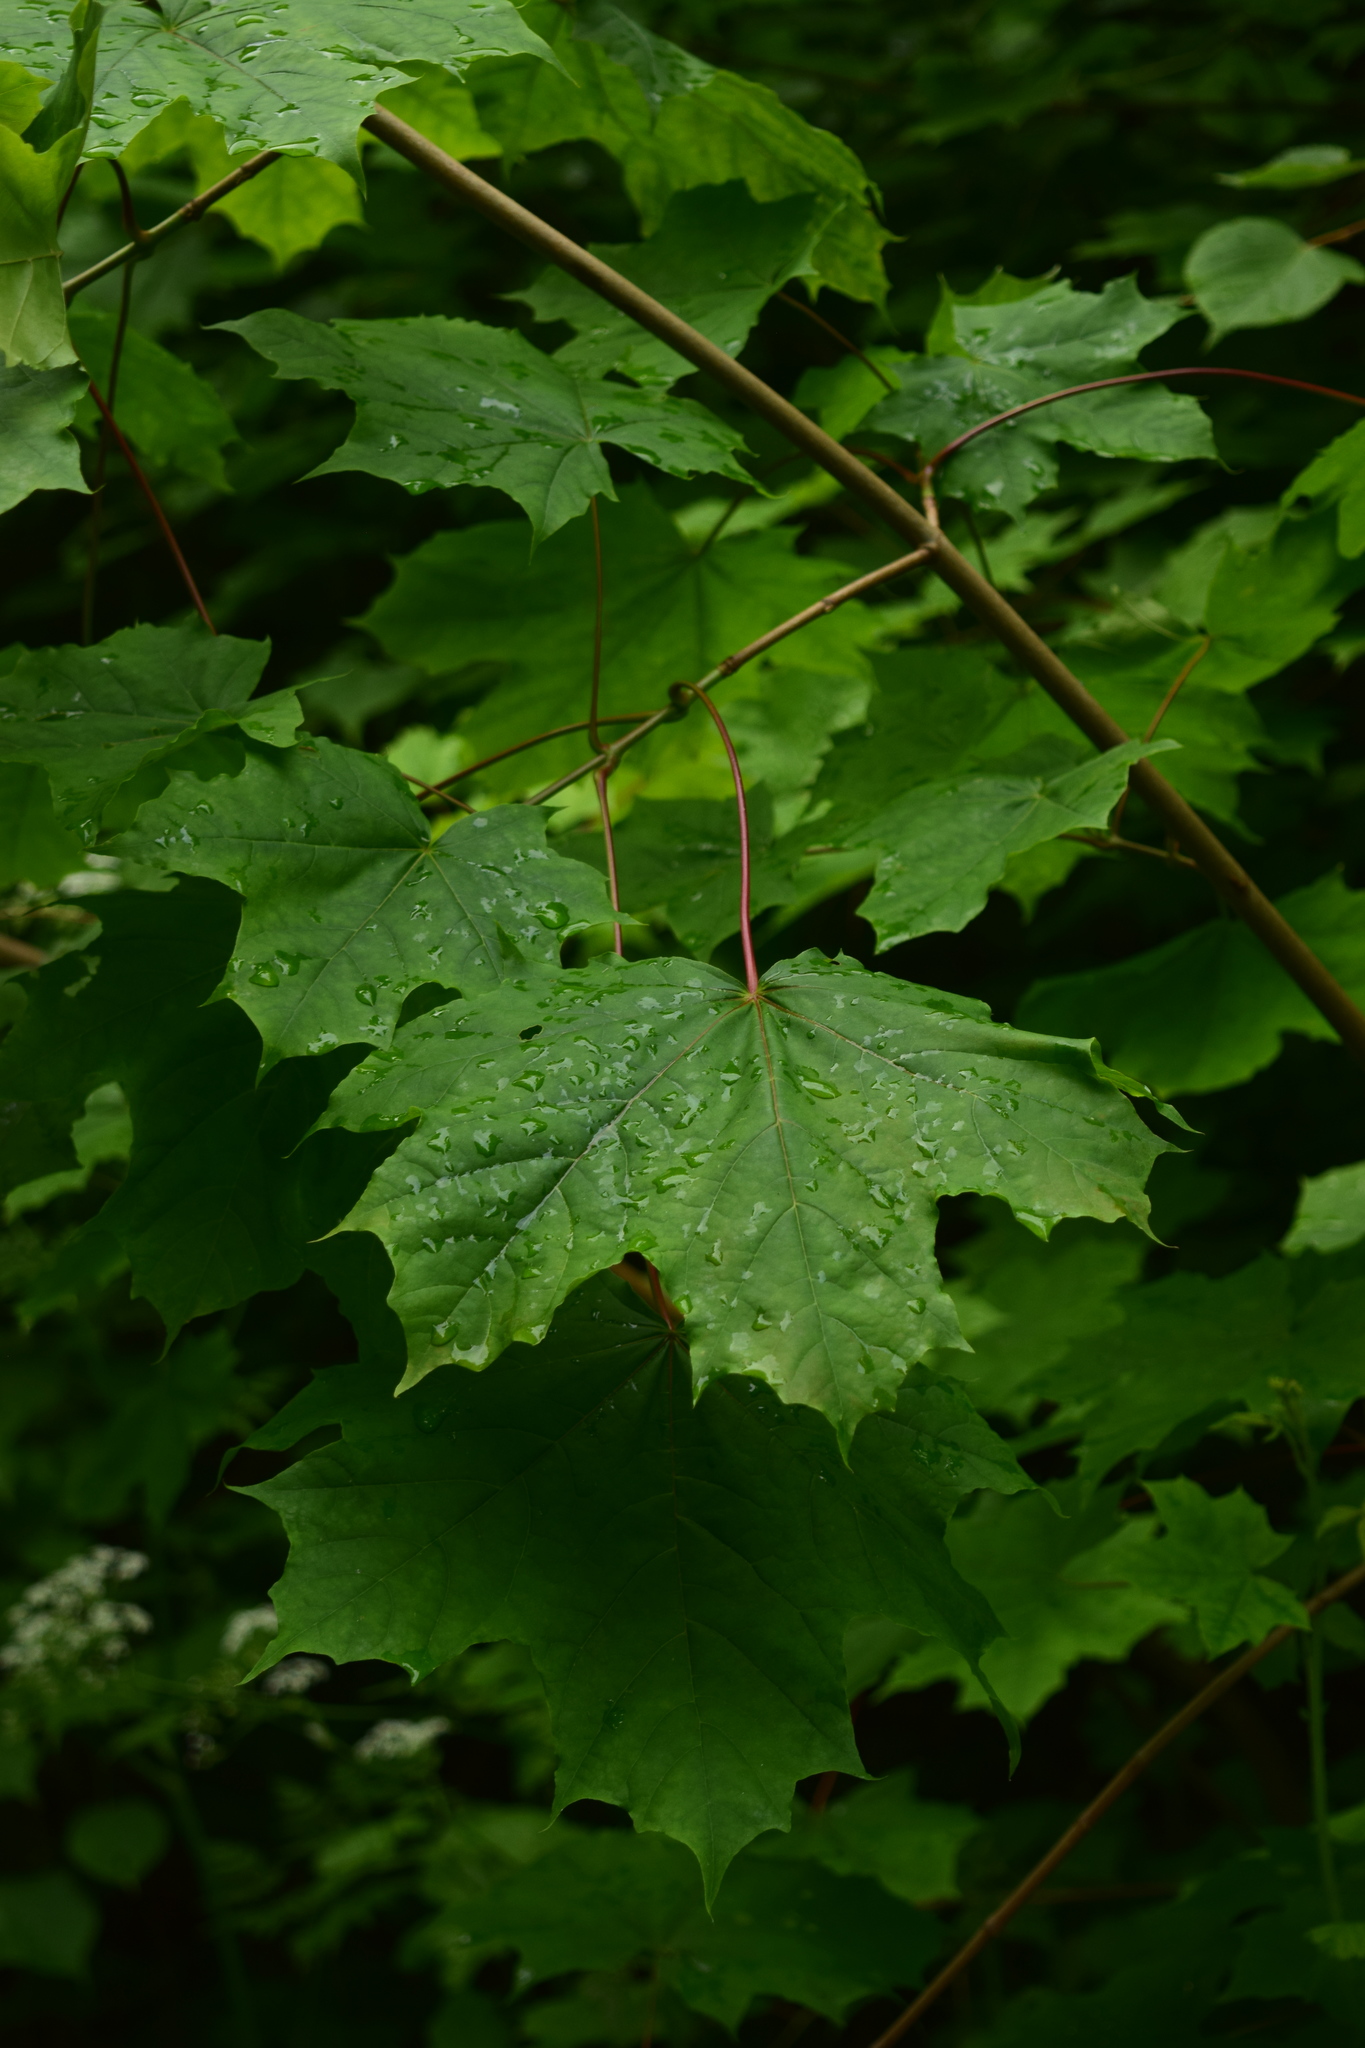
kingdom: Plantae
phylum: Tracheophyta
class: Magnoliopsida
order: Sapindales
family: Sapindaceae
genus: Acer
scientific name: Acer platanoides
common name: Norway maple
